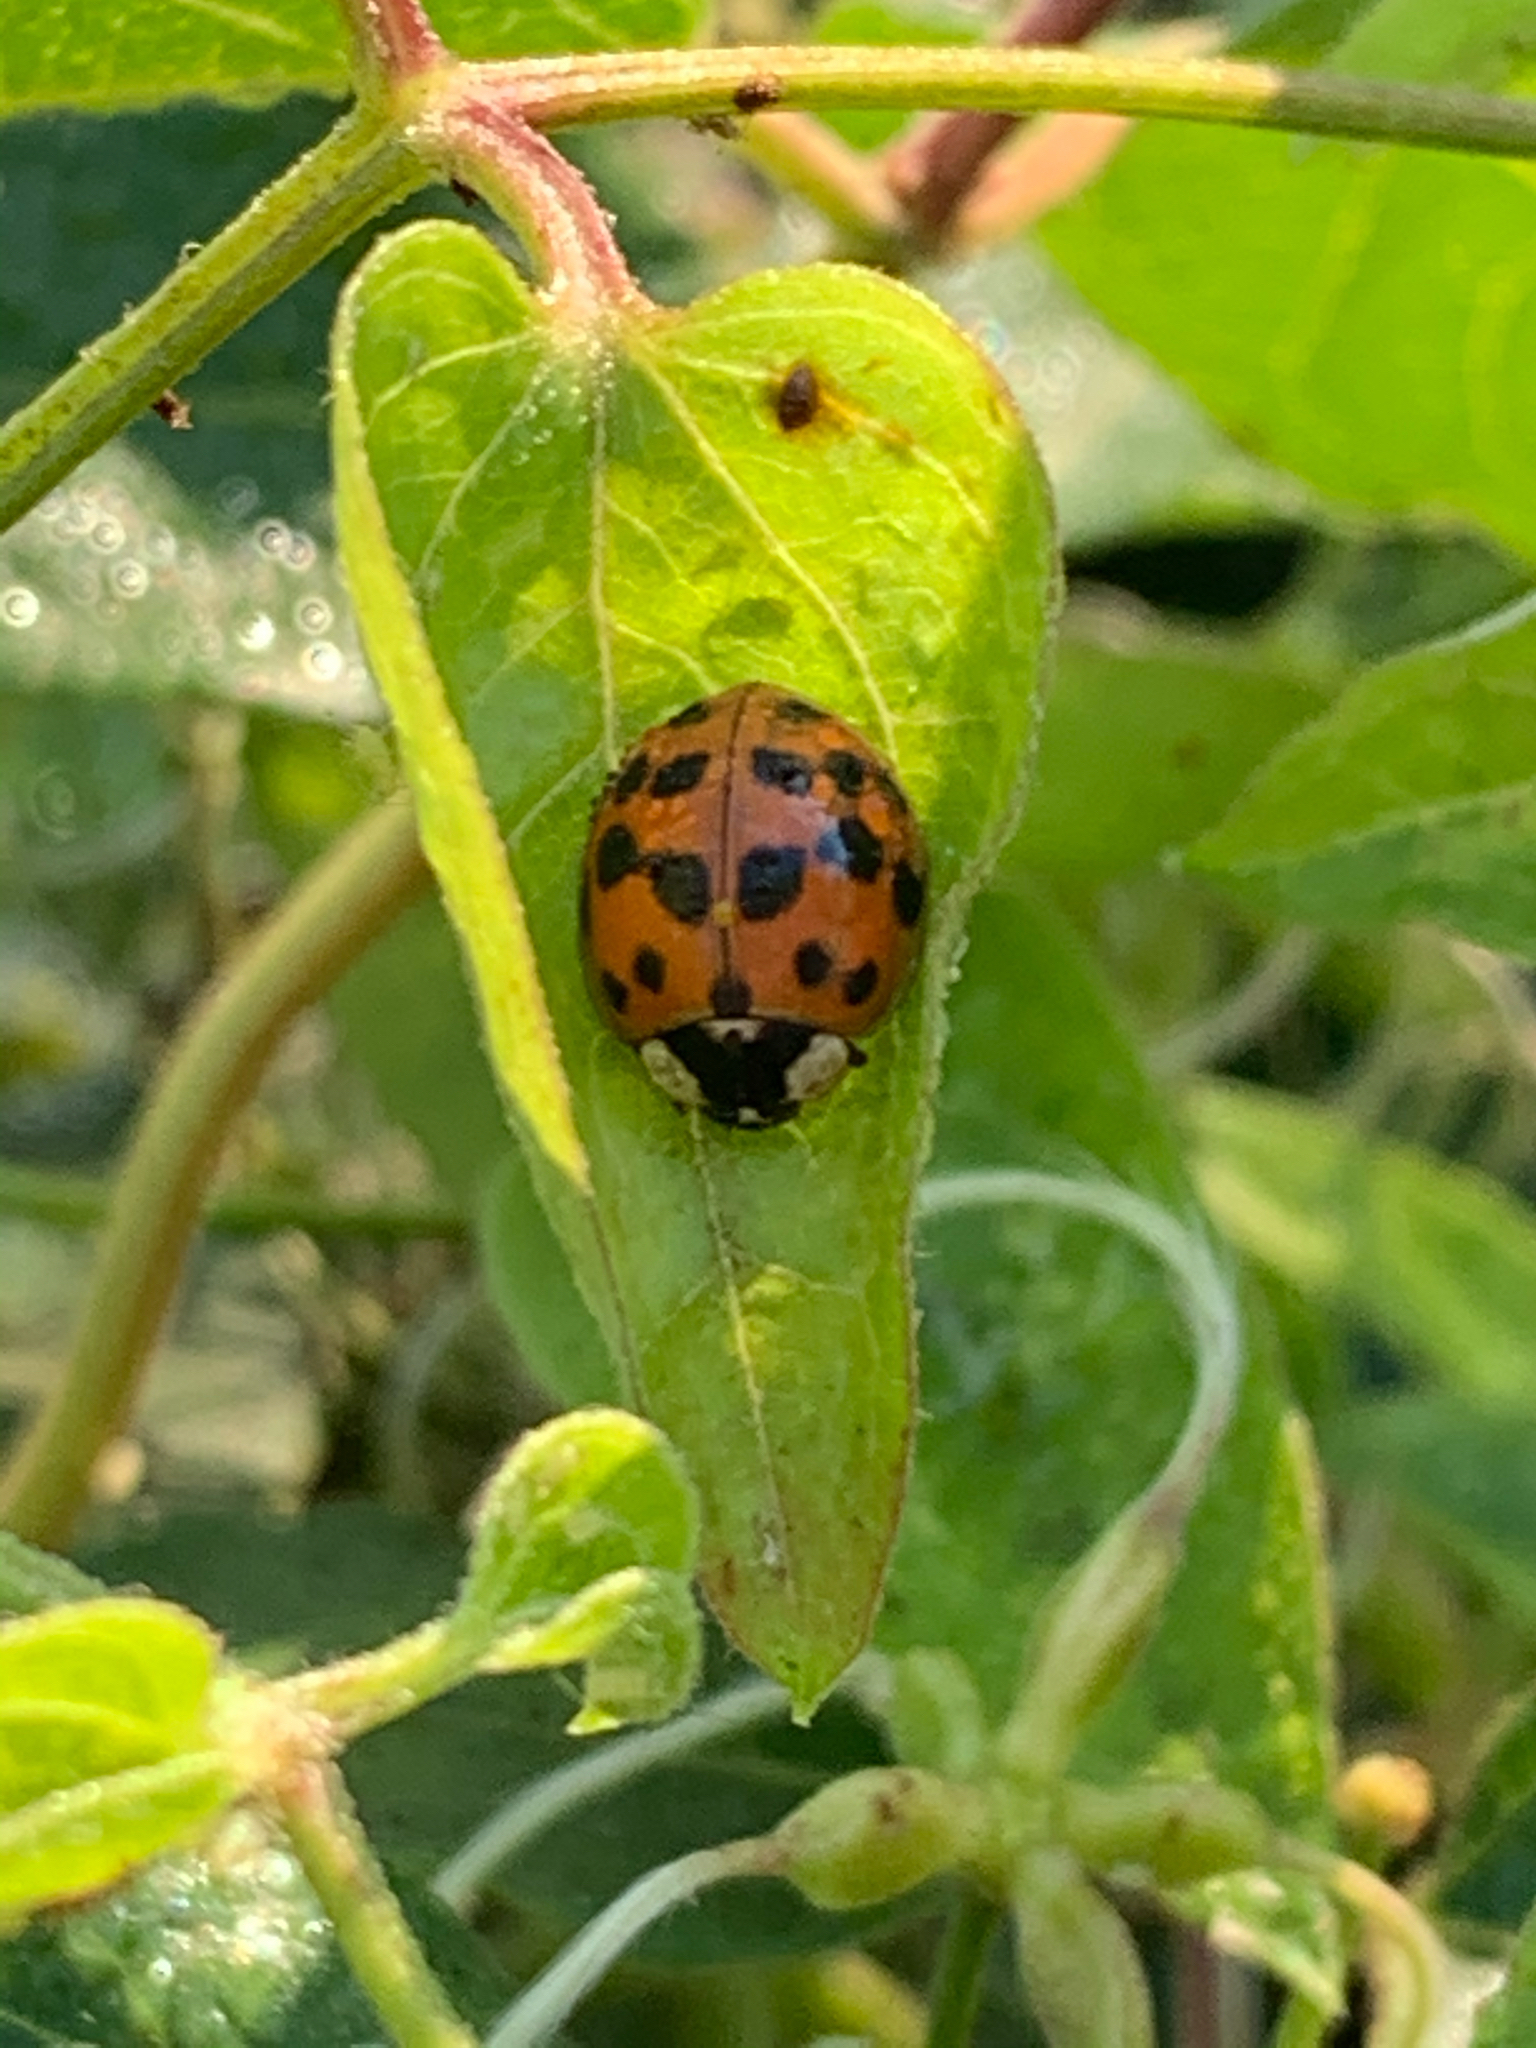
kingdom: Animalia
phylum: Arthropoda
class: Insecta
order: Coleoptera
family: Coccinellidae
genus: Harmonia
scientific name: Harmonia axyridis
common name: Harlequin ladybird
